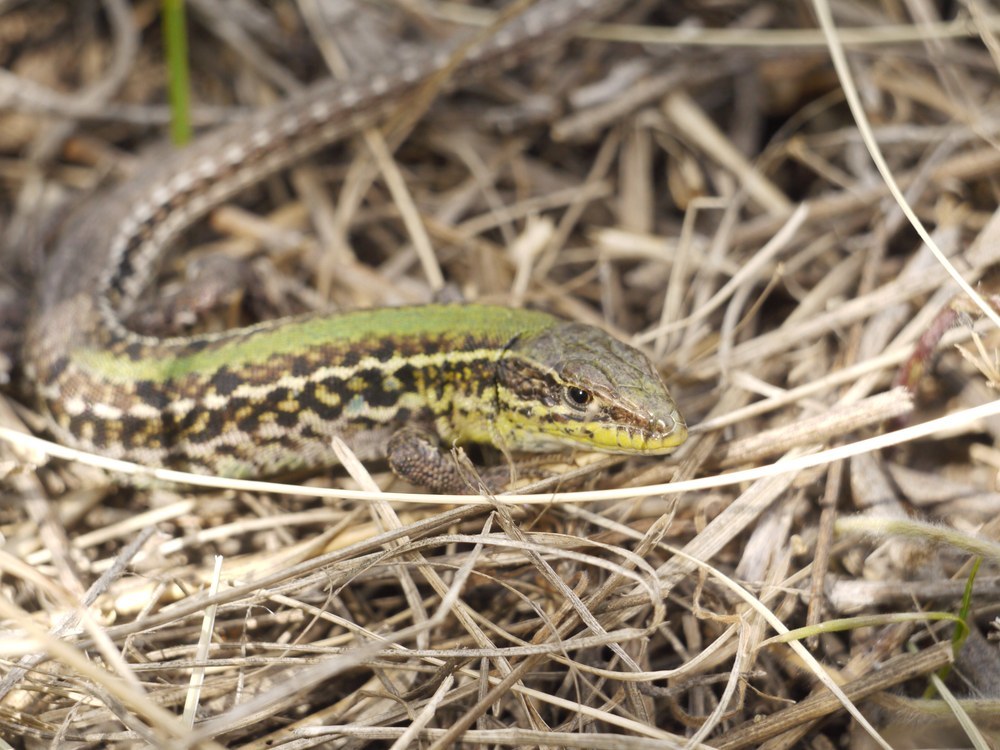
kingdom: Animalia
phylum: Chordata
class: Squamata
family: Lacertidae
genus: Podarcis
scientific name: Podarcis tauricus
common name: Balkan wall lizard
